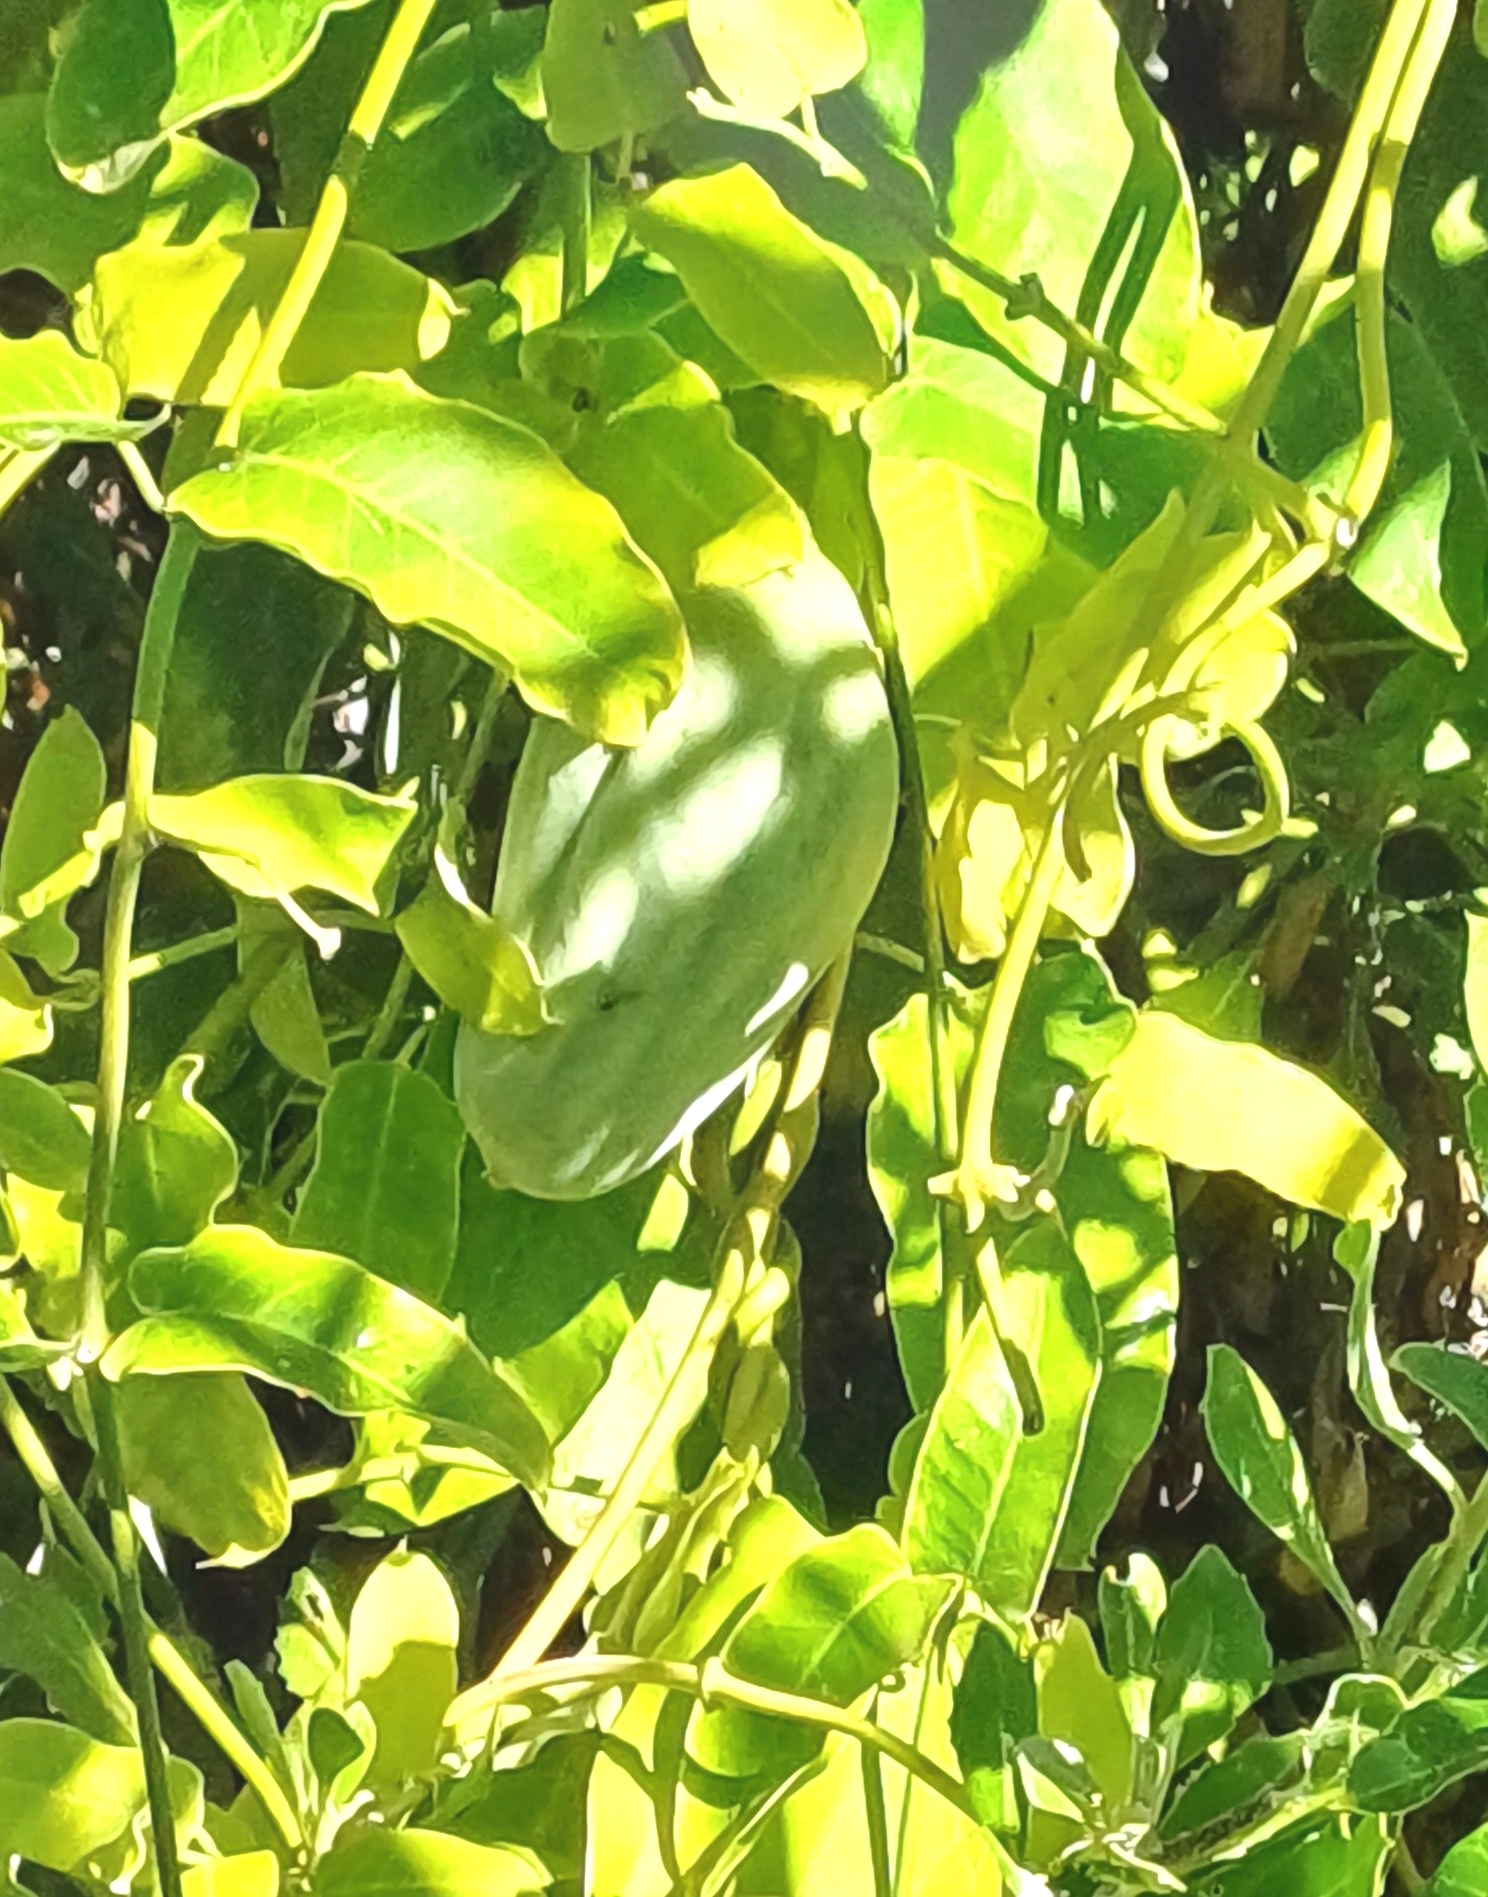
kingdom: Plantae
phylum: Tracheophyta
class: Magnoliopsida
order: Gentianales
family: Apocynaceae
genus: Araujia
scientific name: Araujia sericifera
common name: White bladderflower
